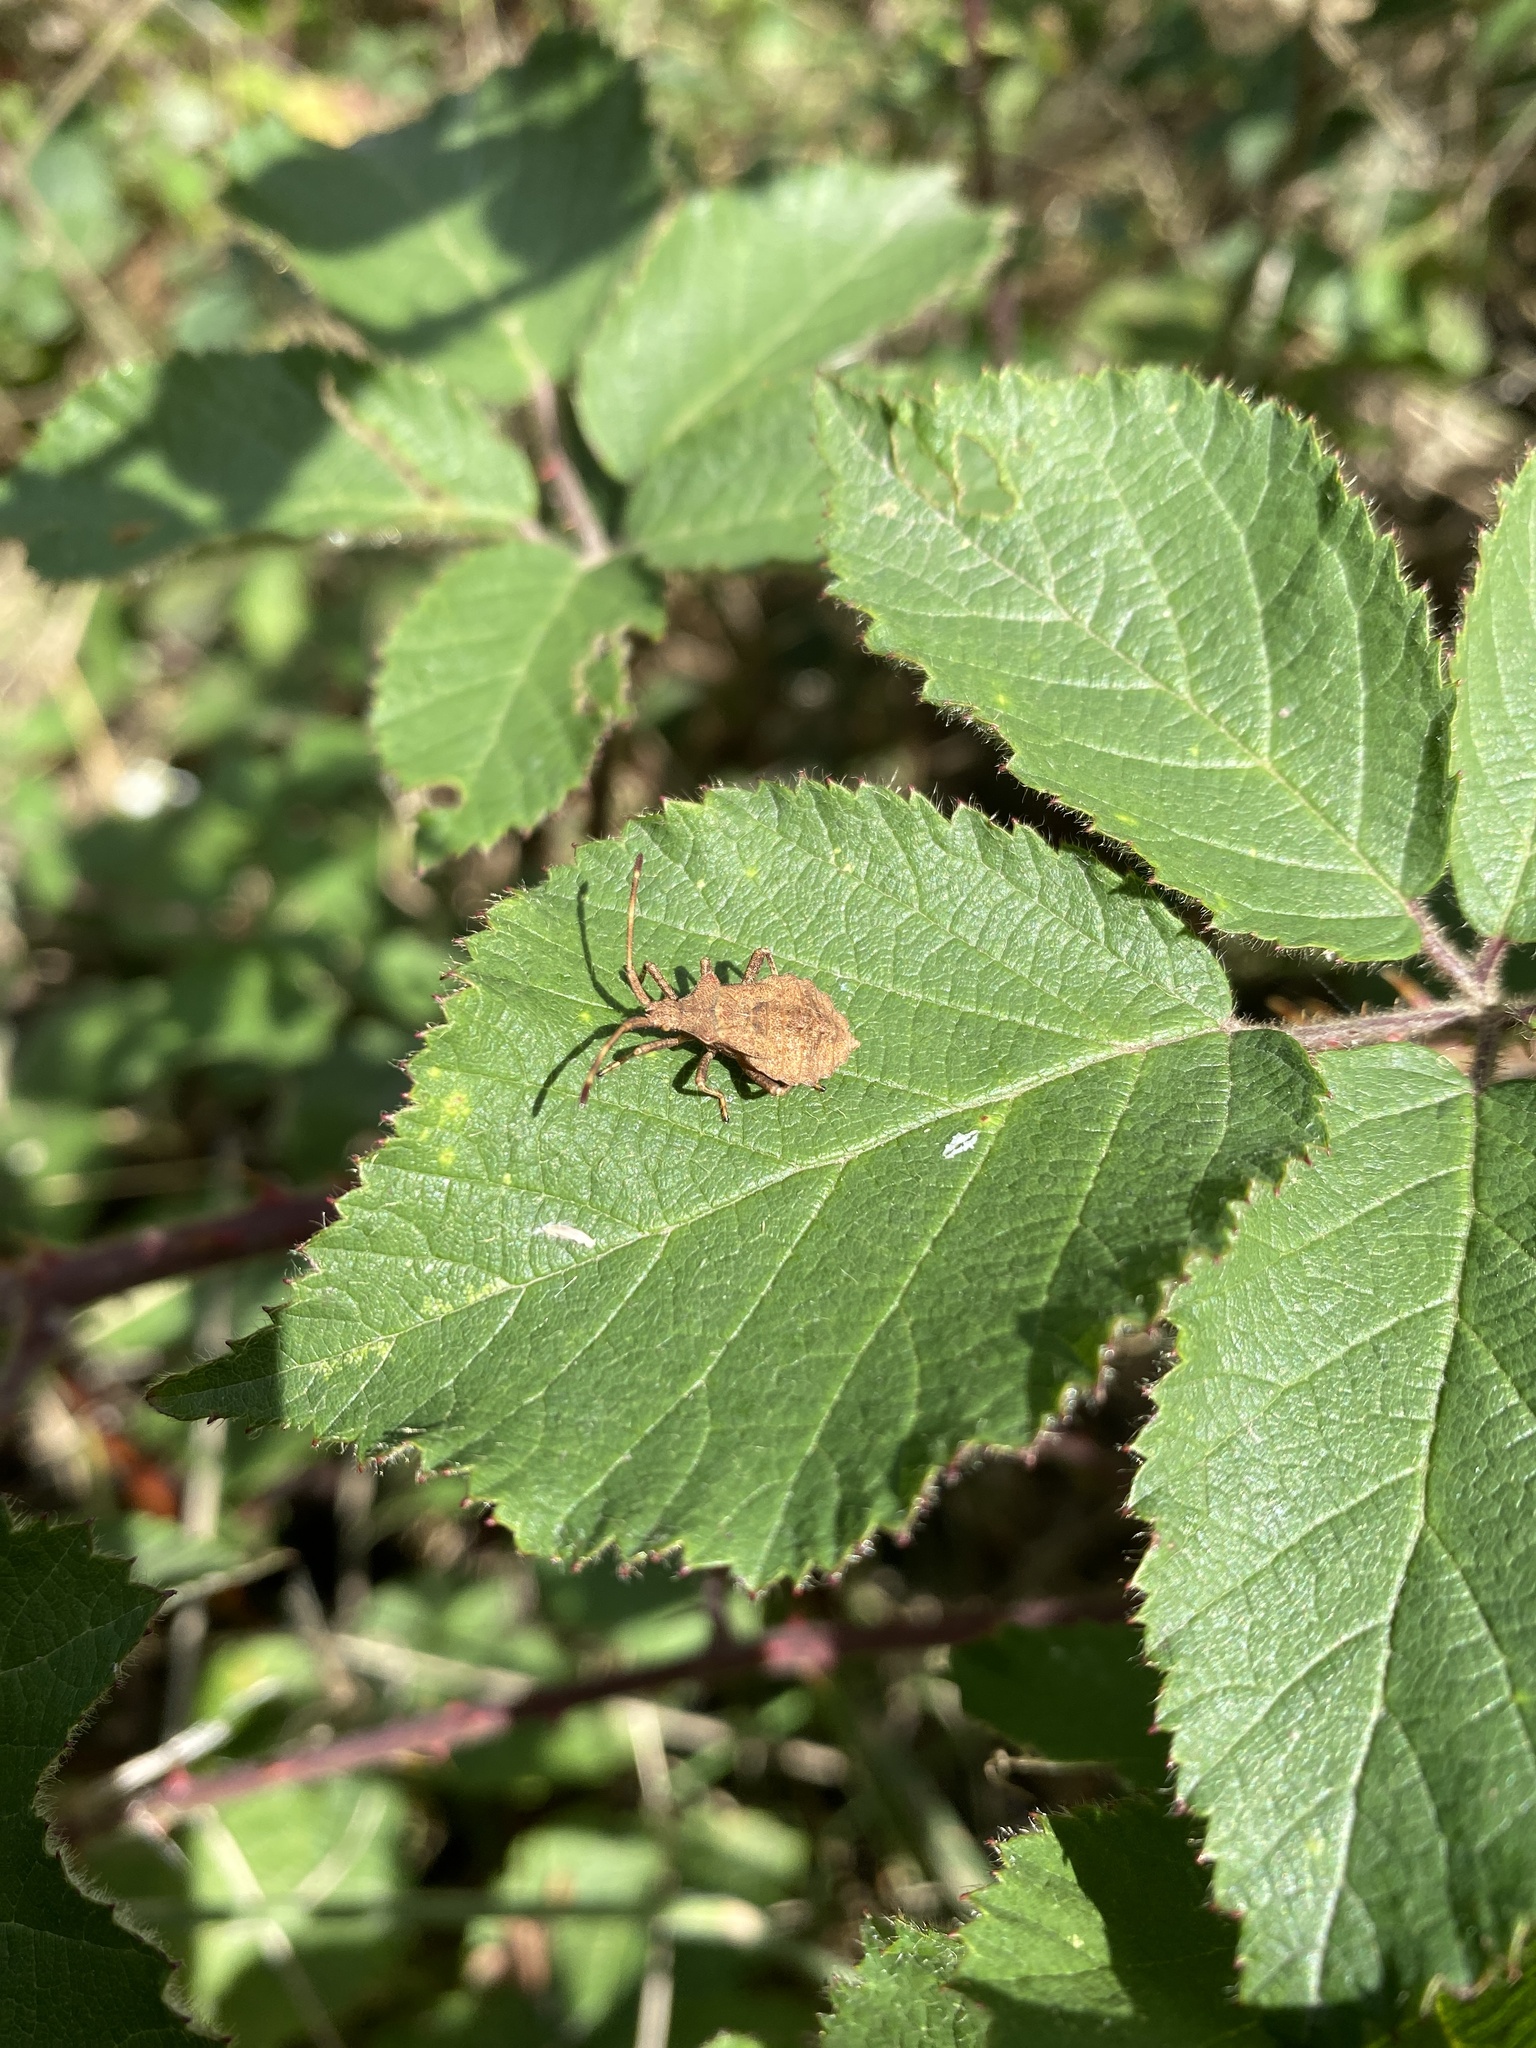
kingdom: Animalia
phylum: Arthropoda
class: Insecta
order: Hemiptera
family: Coreidae
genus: Coreus
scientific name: Coreus marginatus
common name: Dock bug
